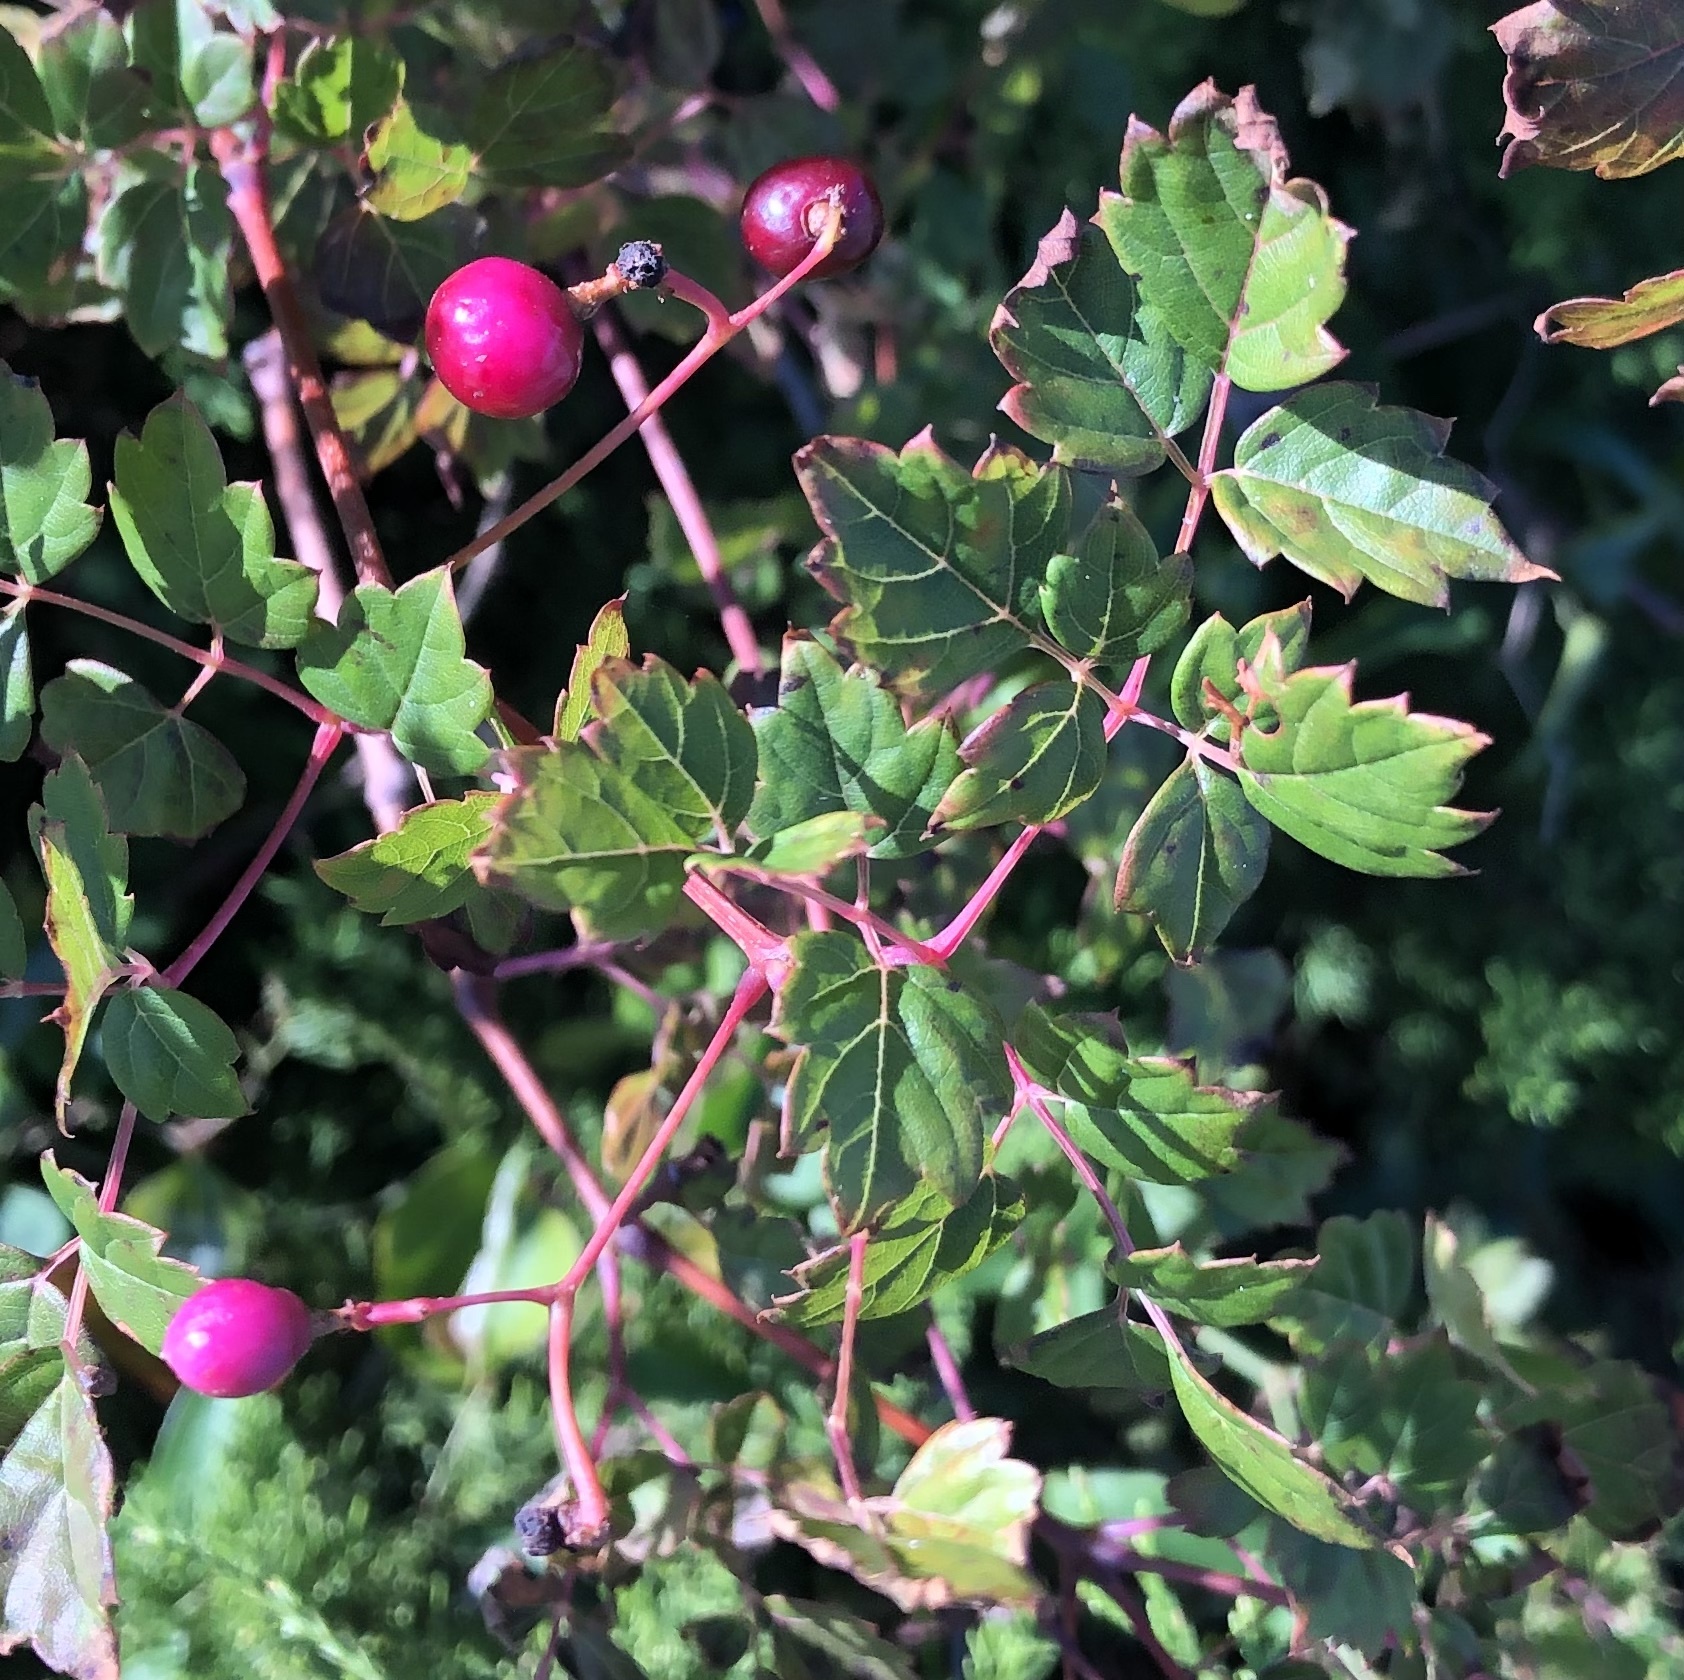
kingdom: Plantae
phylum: Tracheophyta
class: Magnoliopsida
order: Vitales
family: Vitaceae
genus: Nekemias
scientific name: Nekemias arborea
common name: Peppervine
